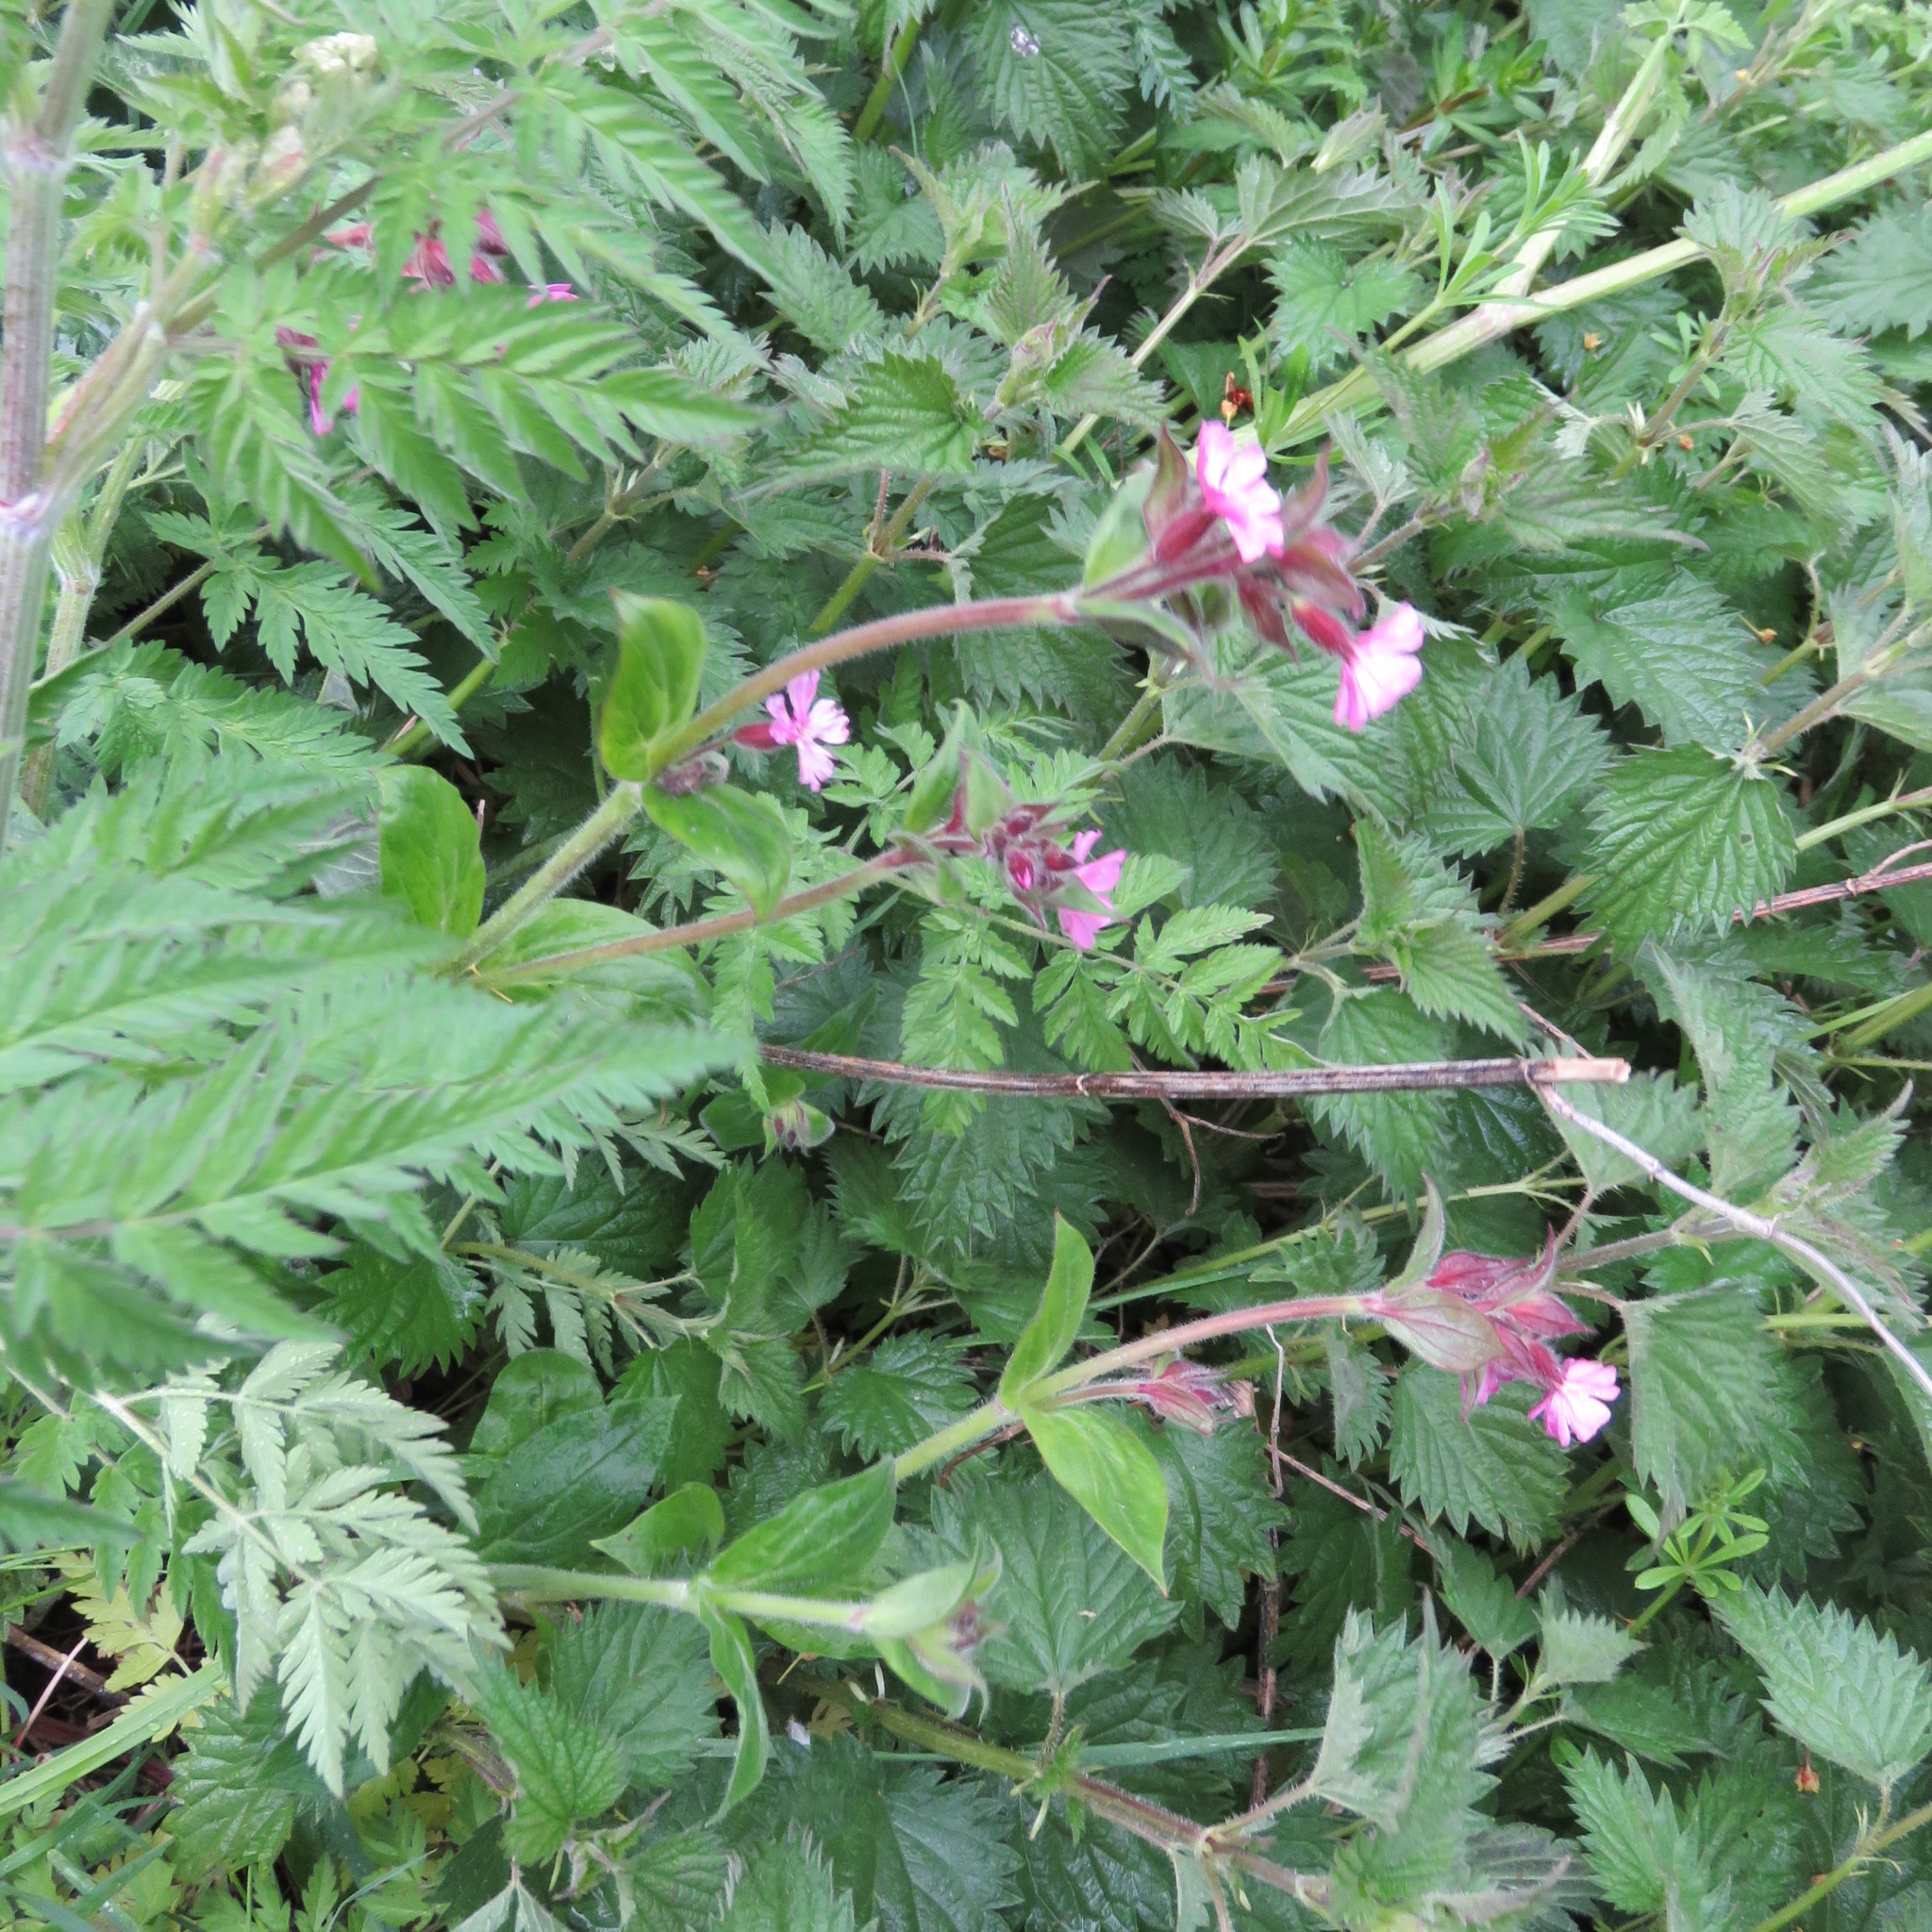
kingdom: Plantae
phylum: Tracheophyta
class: Magnoliopsida
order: Caryophyllales
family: Caryophyllaceae
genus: Silene
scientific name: Silene dioica
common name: Red campion
